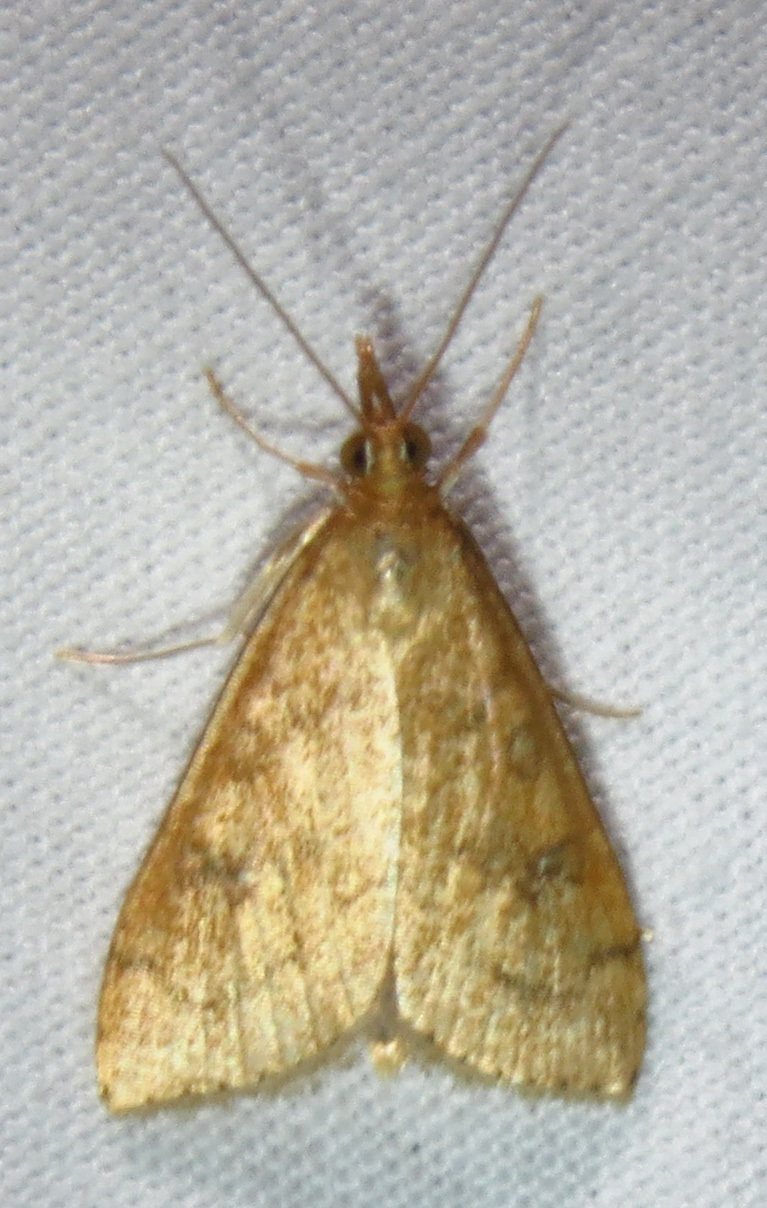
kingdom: Animalia
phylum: Arthropoda
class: Insecta
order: Lepidoptera
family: Crambidae
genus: Udea
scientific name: Udea rubigalis
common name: Celery leaftier moth
